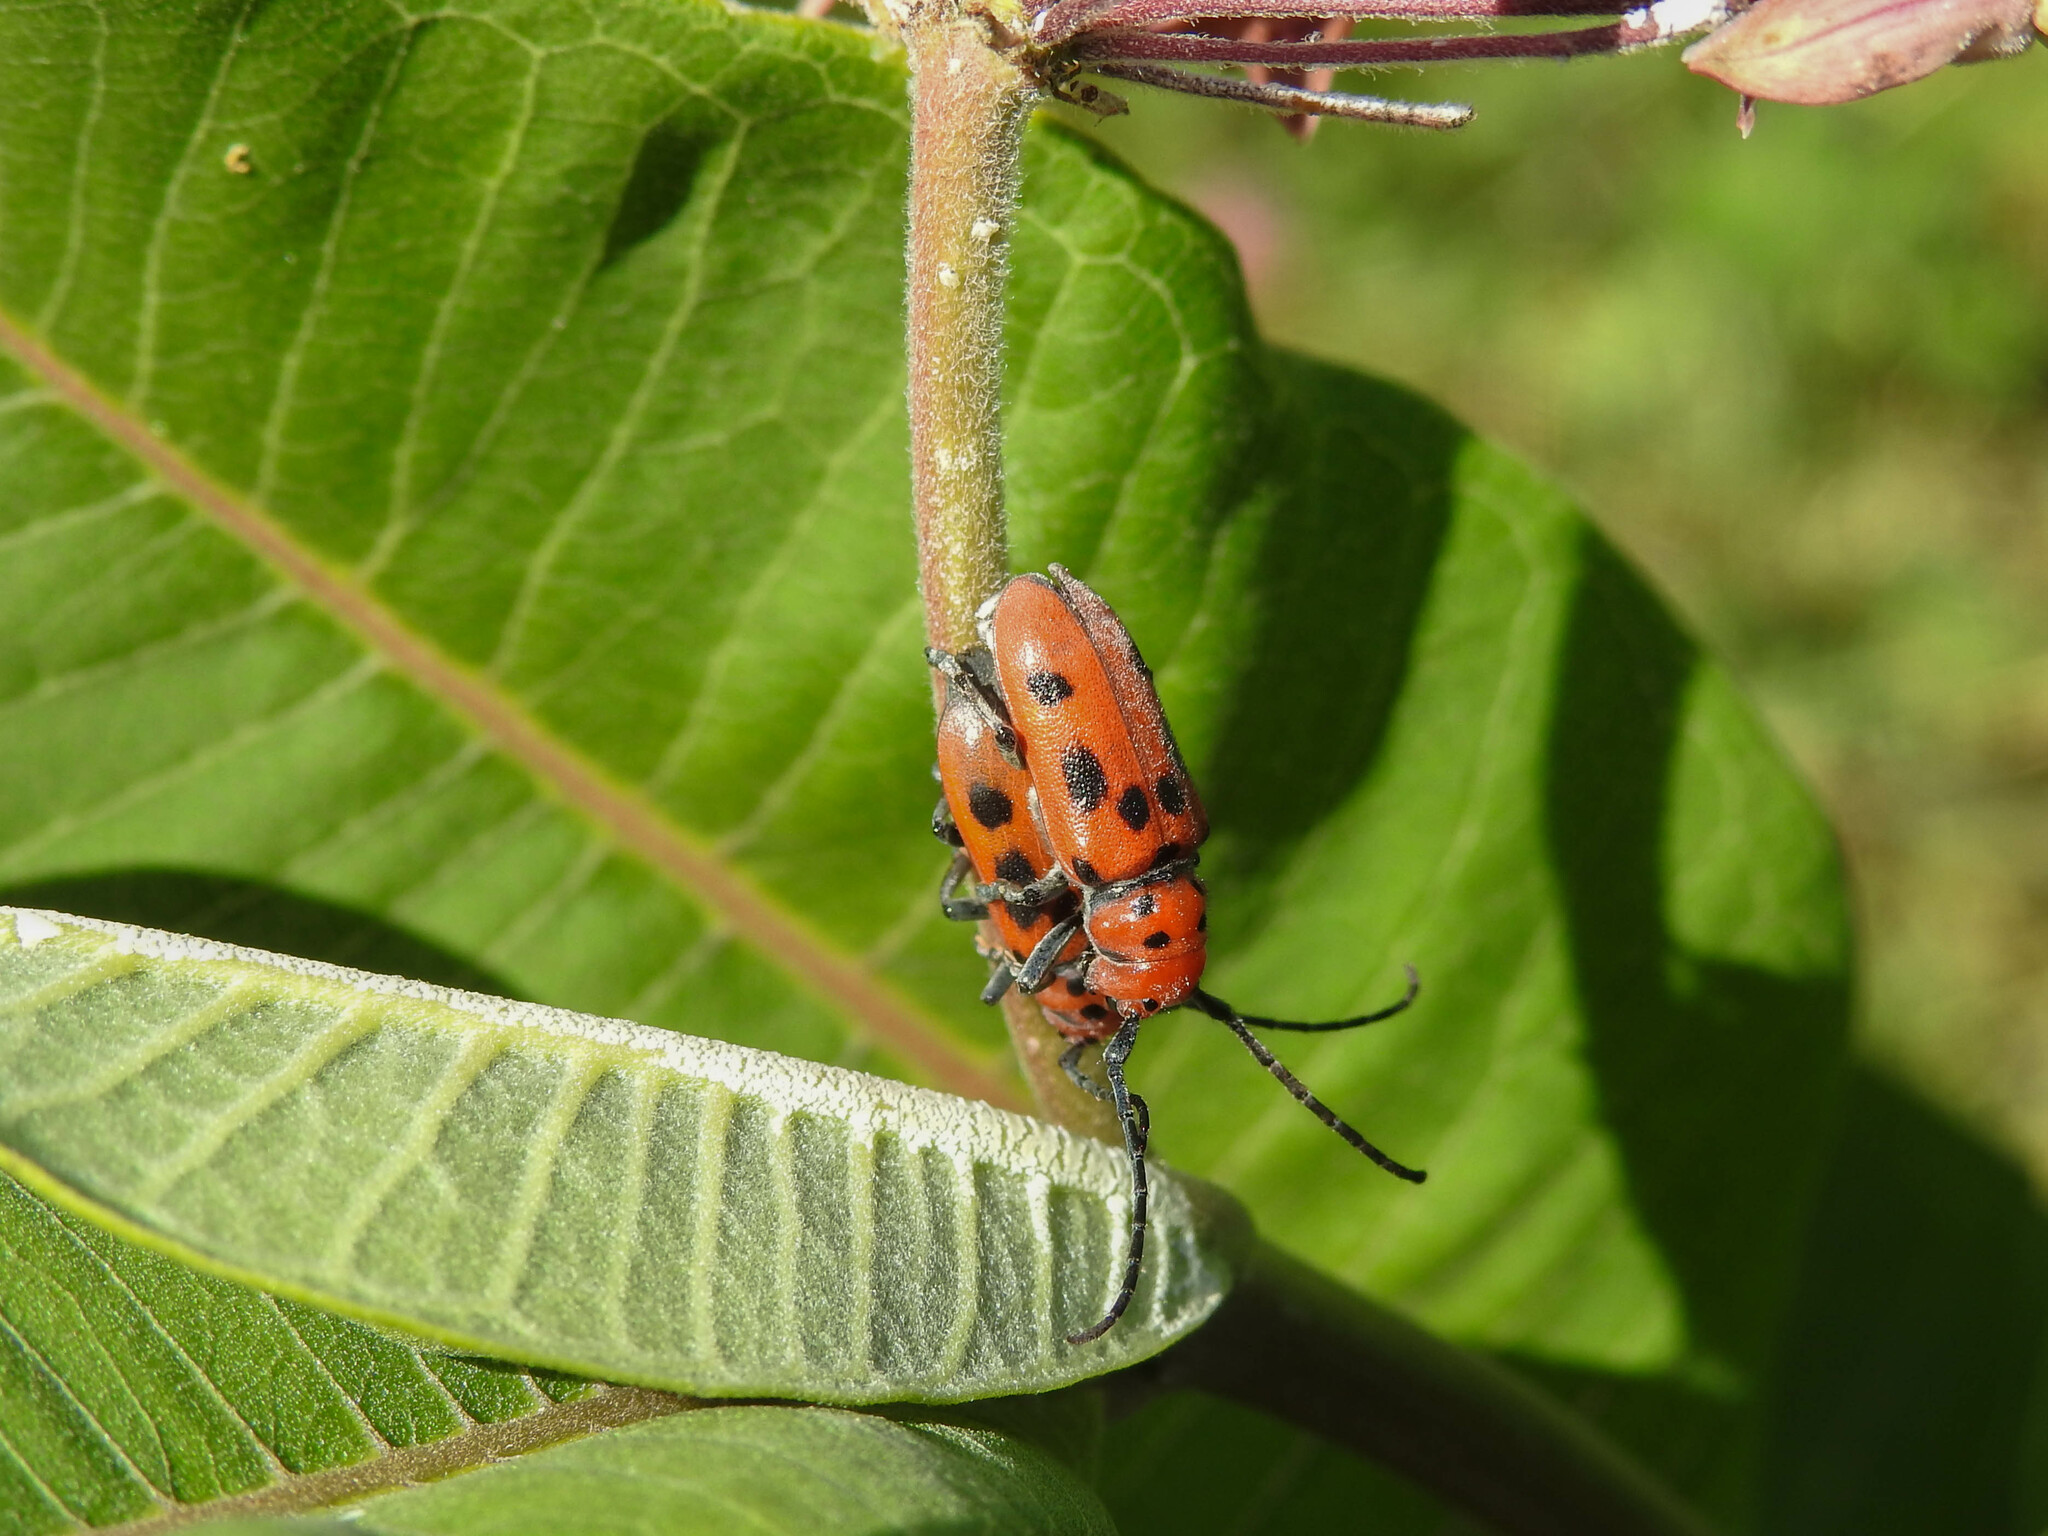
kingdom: Animalia
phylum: Arthropoda
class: Insecta
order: Coleoptera
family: Cerambycidae
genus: Tetraopes
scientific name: Tetraopes tetrophthalmus
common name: Red milkweed beetle
